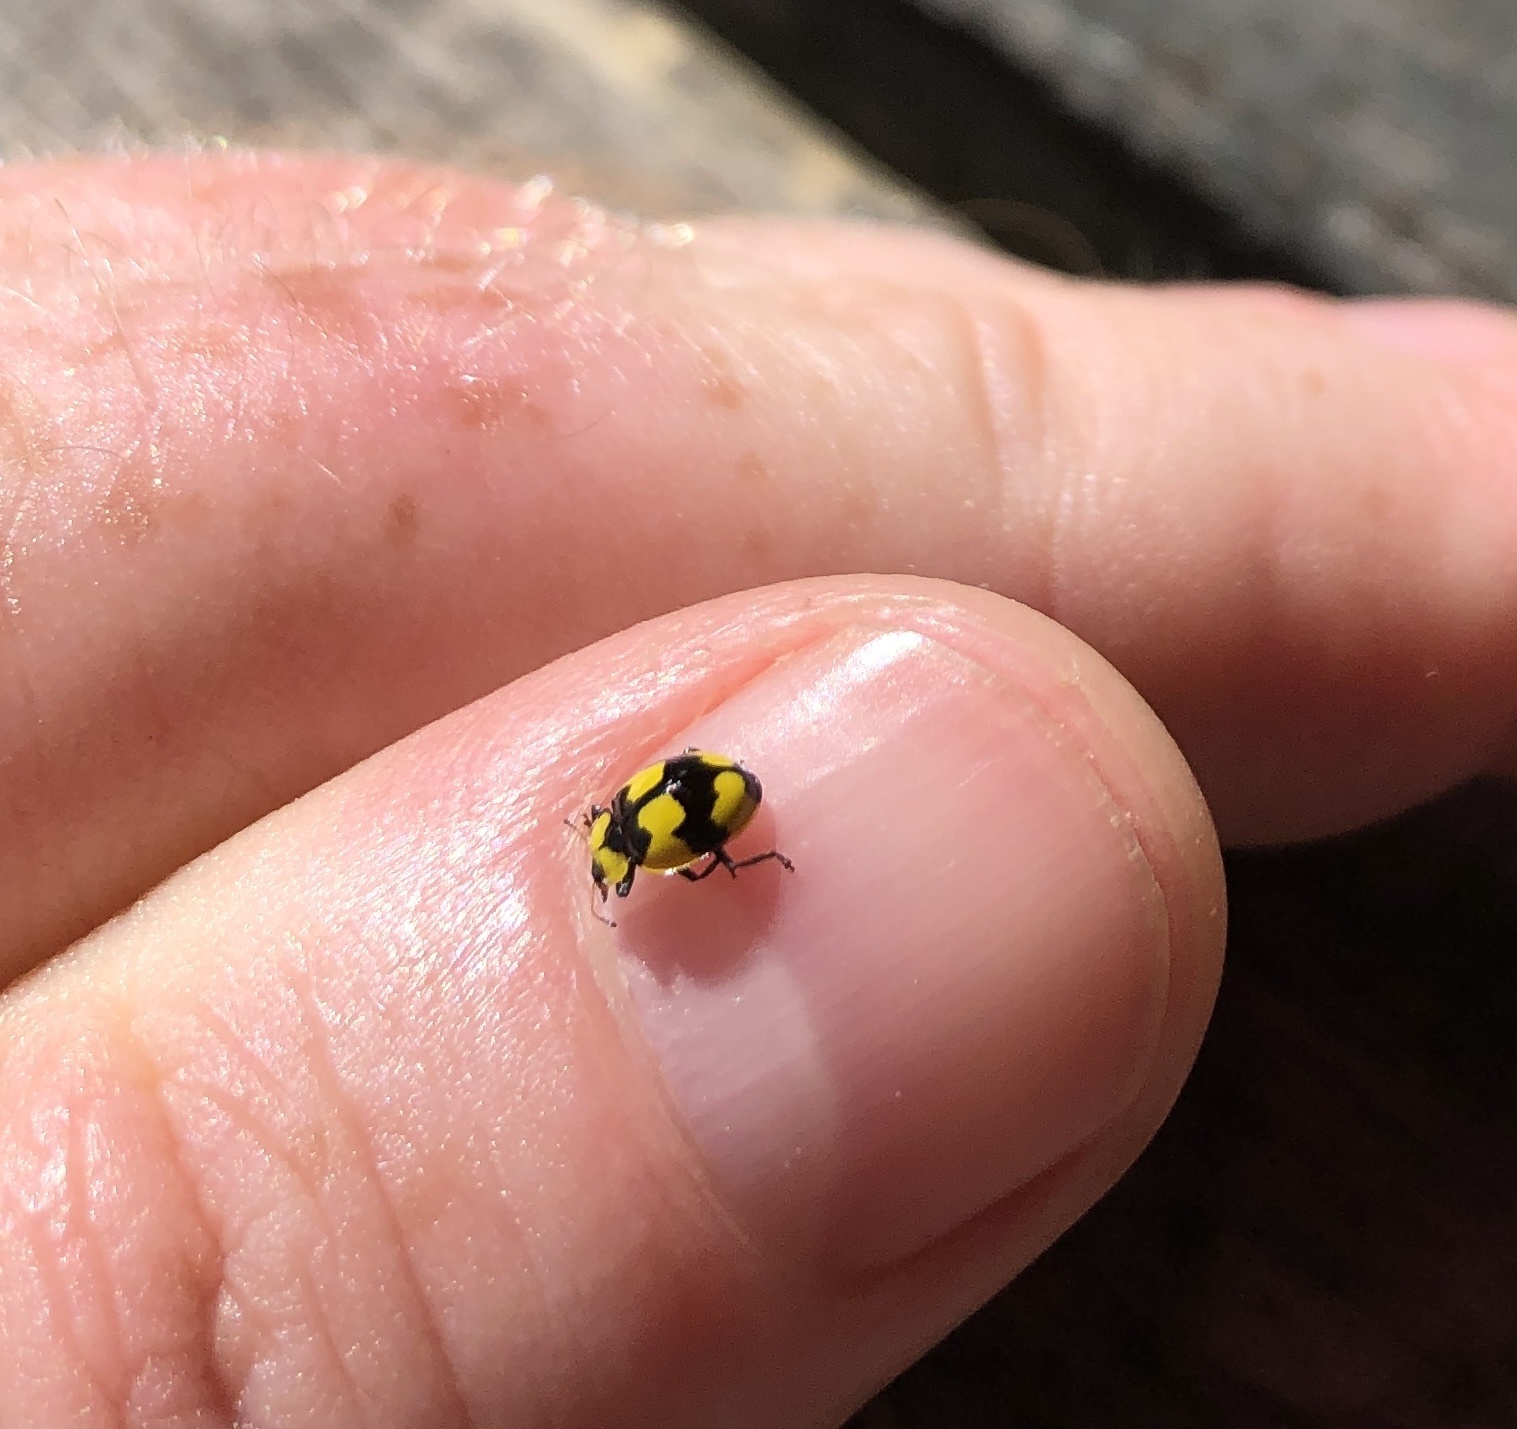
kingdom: Animalia
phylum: Arthropoda
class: Insecta
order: Coleoptera
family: Coccinellidae
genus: Illeis
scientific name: Illeis galbula
